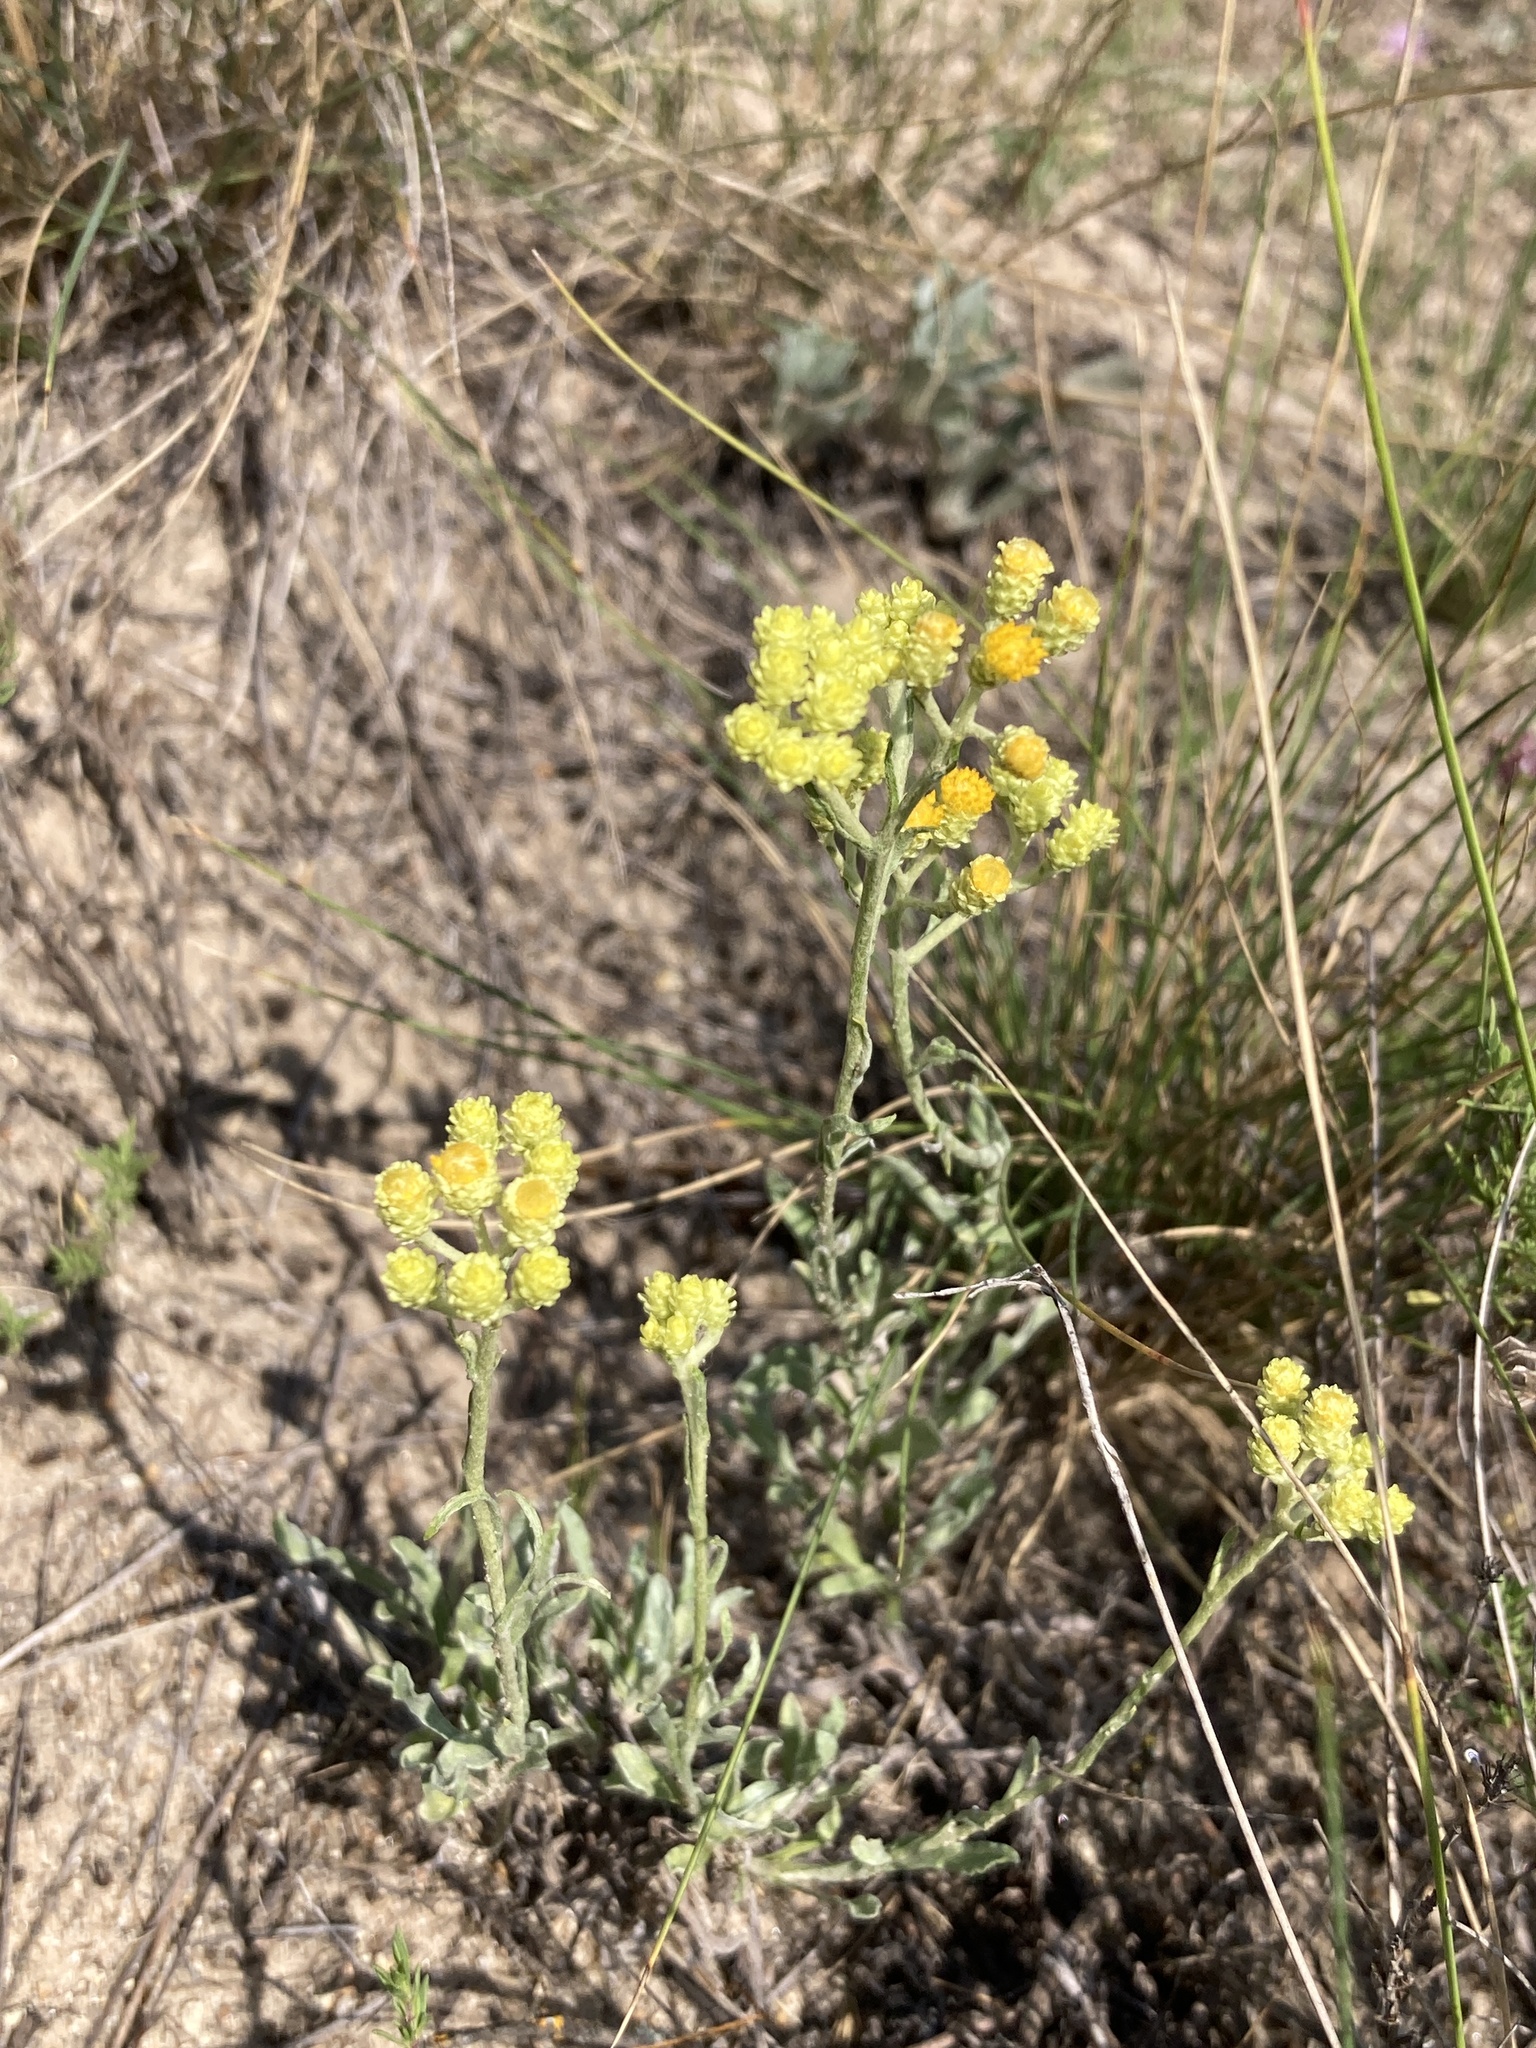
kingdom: Plantae
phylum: Tracheophyta
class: Magnoliopsida
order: Asterales
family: Asteraceae
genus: Helichrysum
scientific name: Helichrysum arenarium
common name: Strawflower
